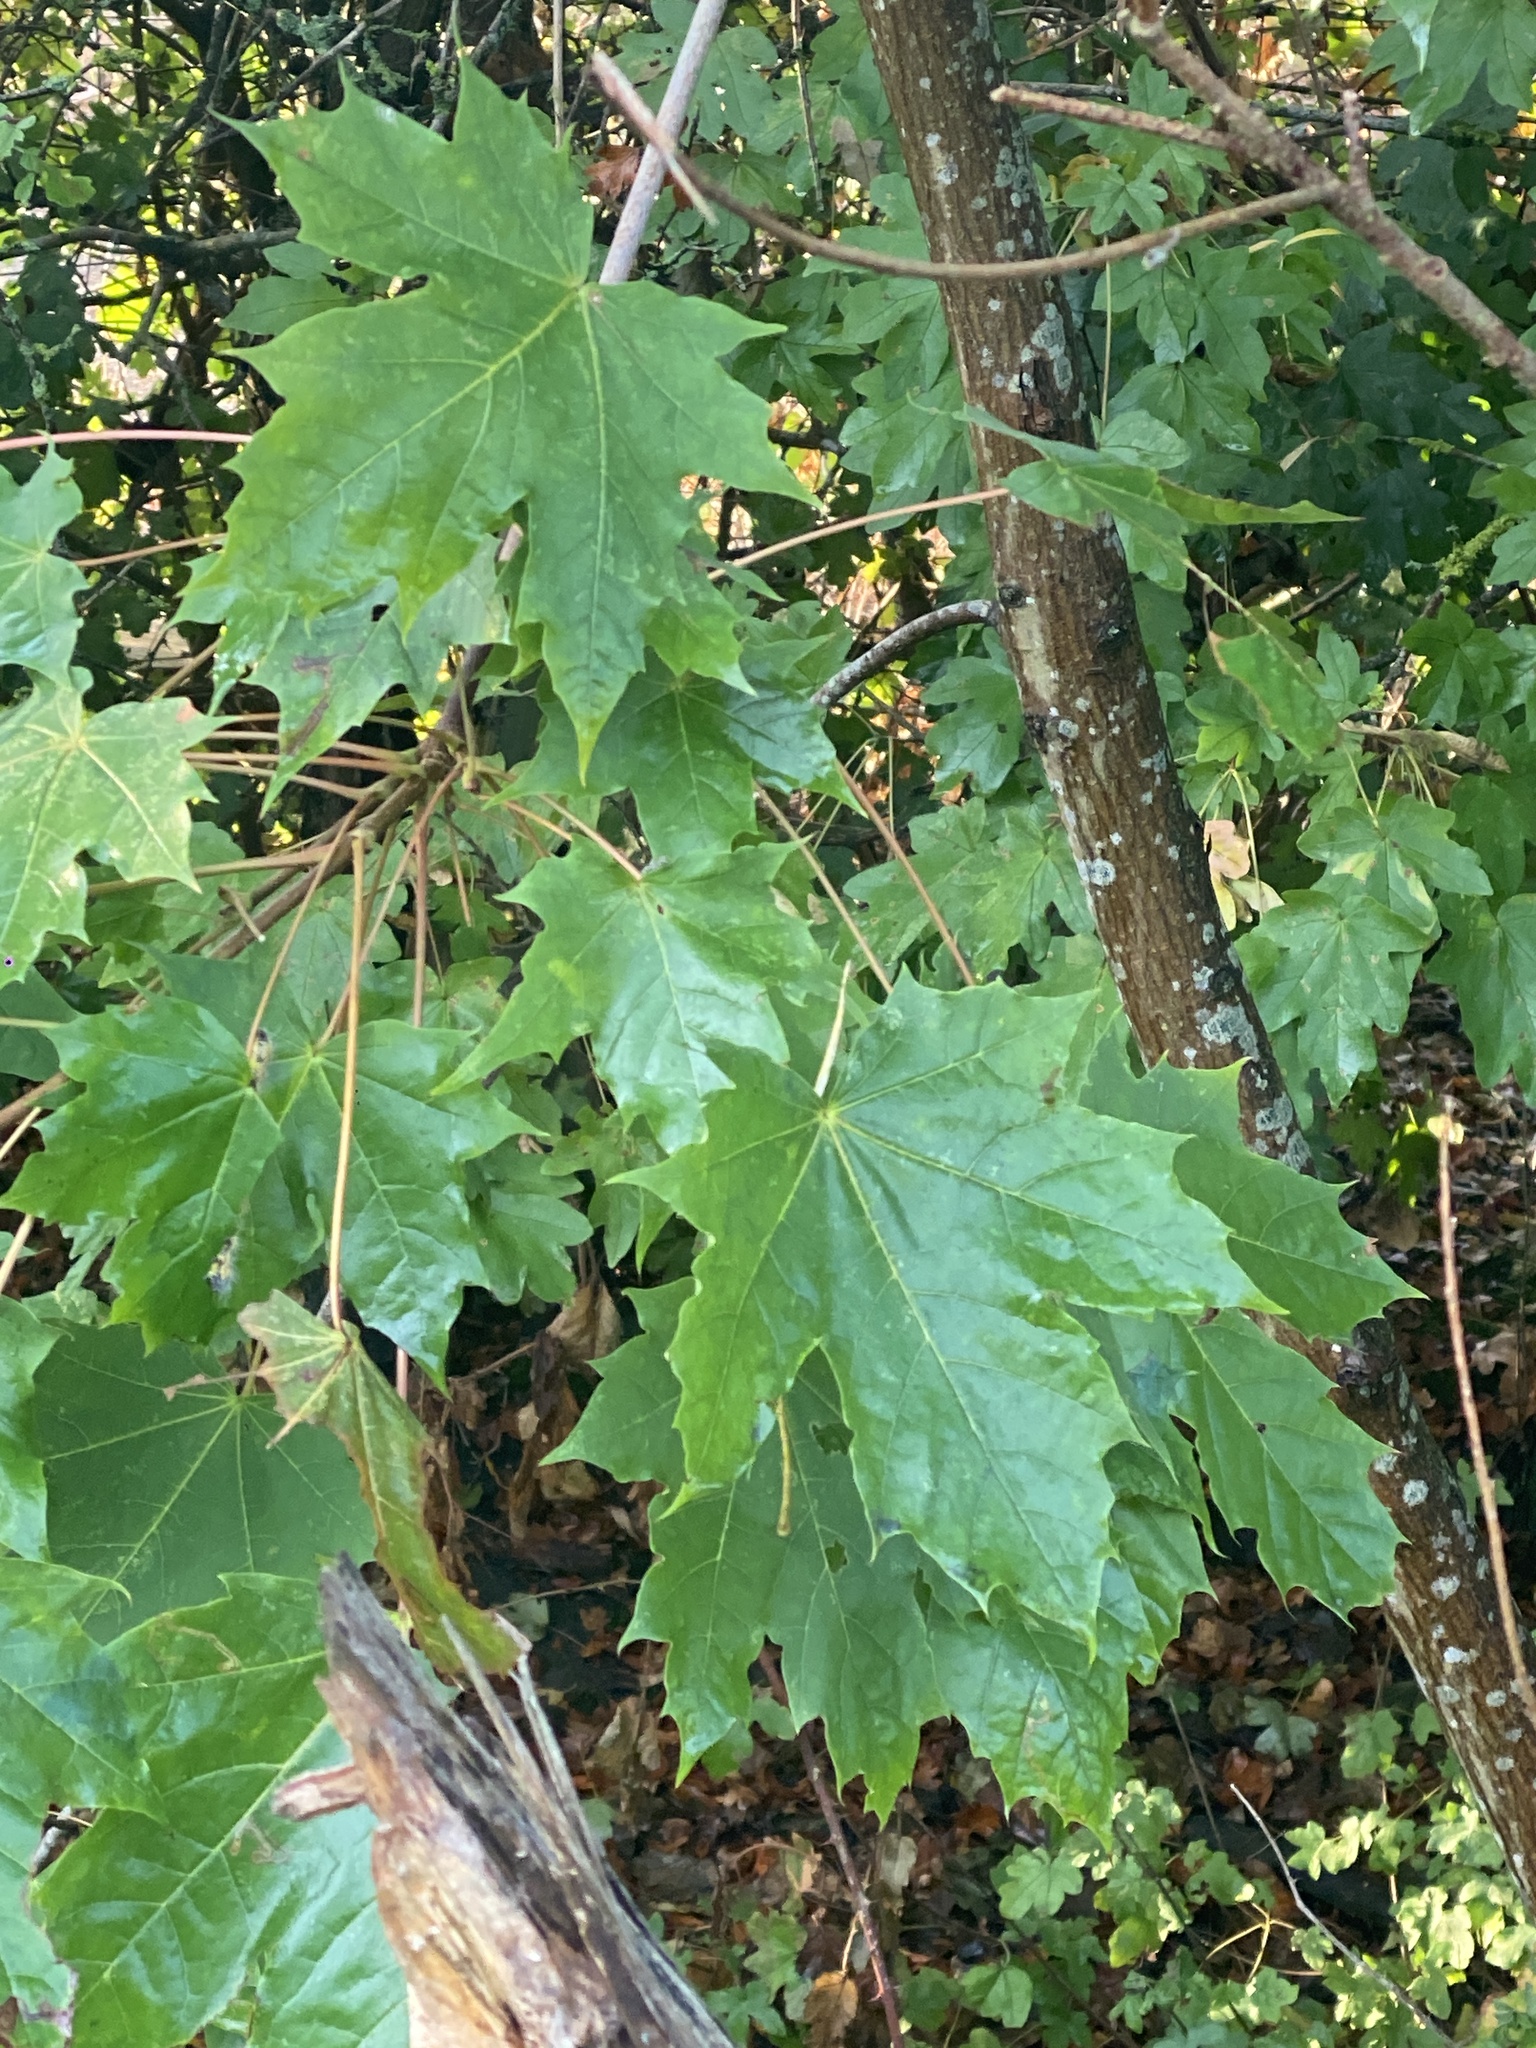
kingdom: Plantae
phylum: Tracheophyta
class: Magnoliopsida
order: Sapindales
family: Sapindaceae
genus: Acer
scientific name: Acer platanoides
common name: Norway maple
